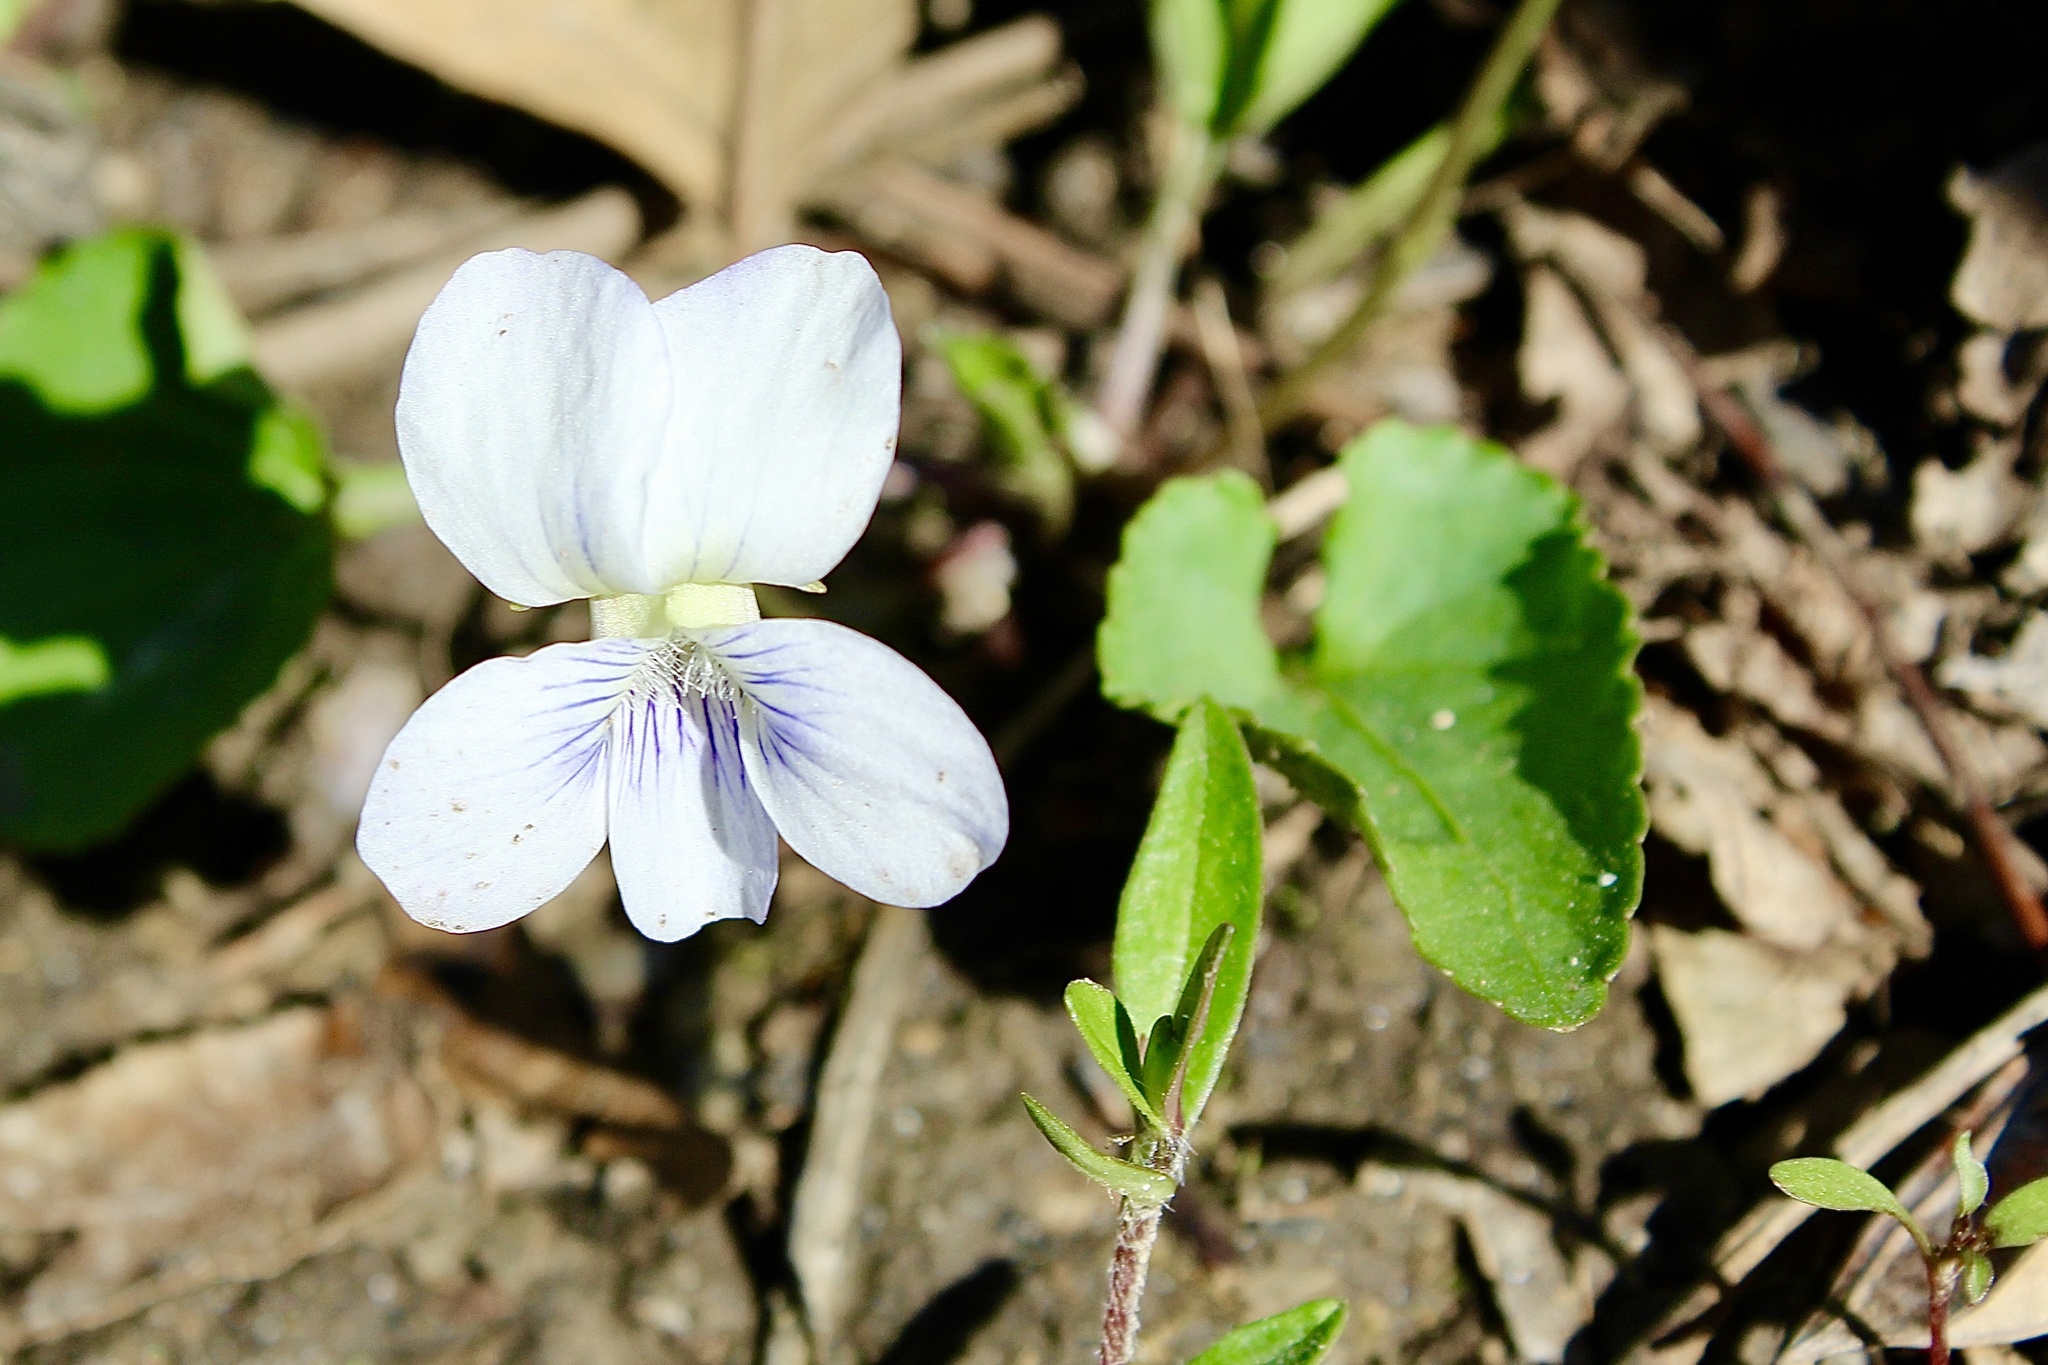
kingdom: Plantae
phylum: Tracheophyta
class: Magnoliopsida
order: Malpighiales
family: Violaceae
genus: Viola
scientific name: Viola sororia
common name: Dooryard violet
